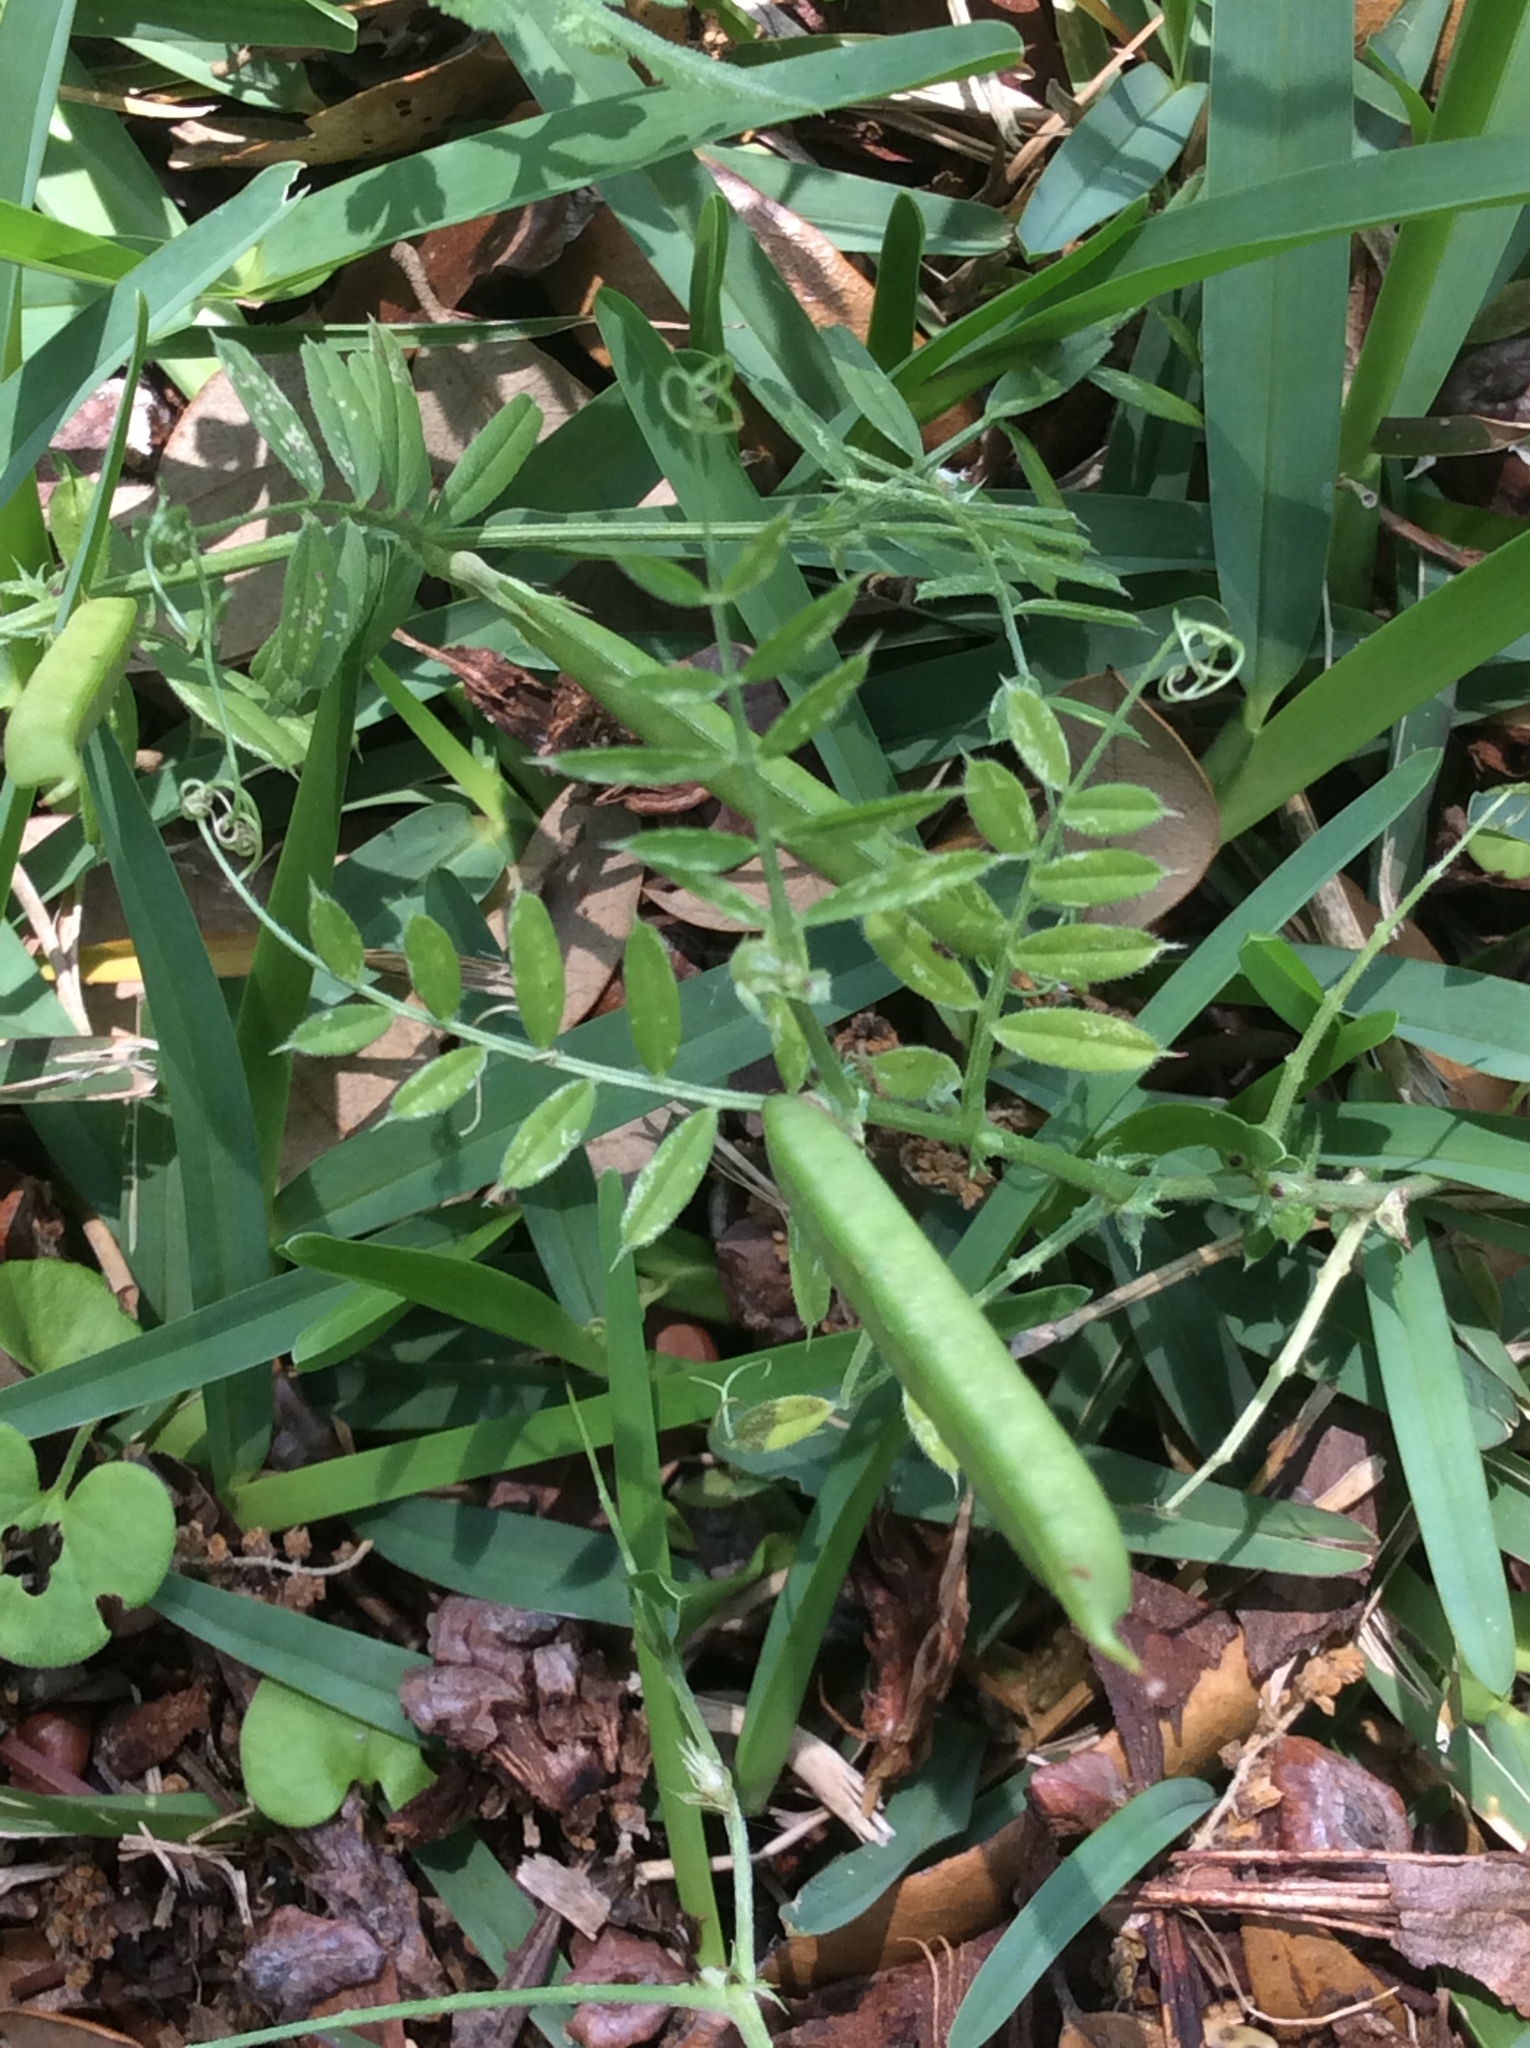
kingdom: Plantae
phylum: Tracheophyta
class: Magnoliopsida
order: Fabales
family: Fabaceae
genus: Vicia
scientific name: Vicia sativa
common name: Garden vetch
